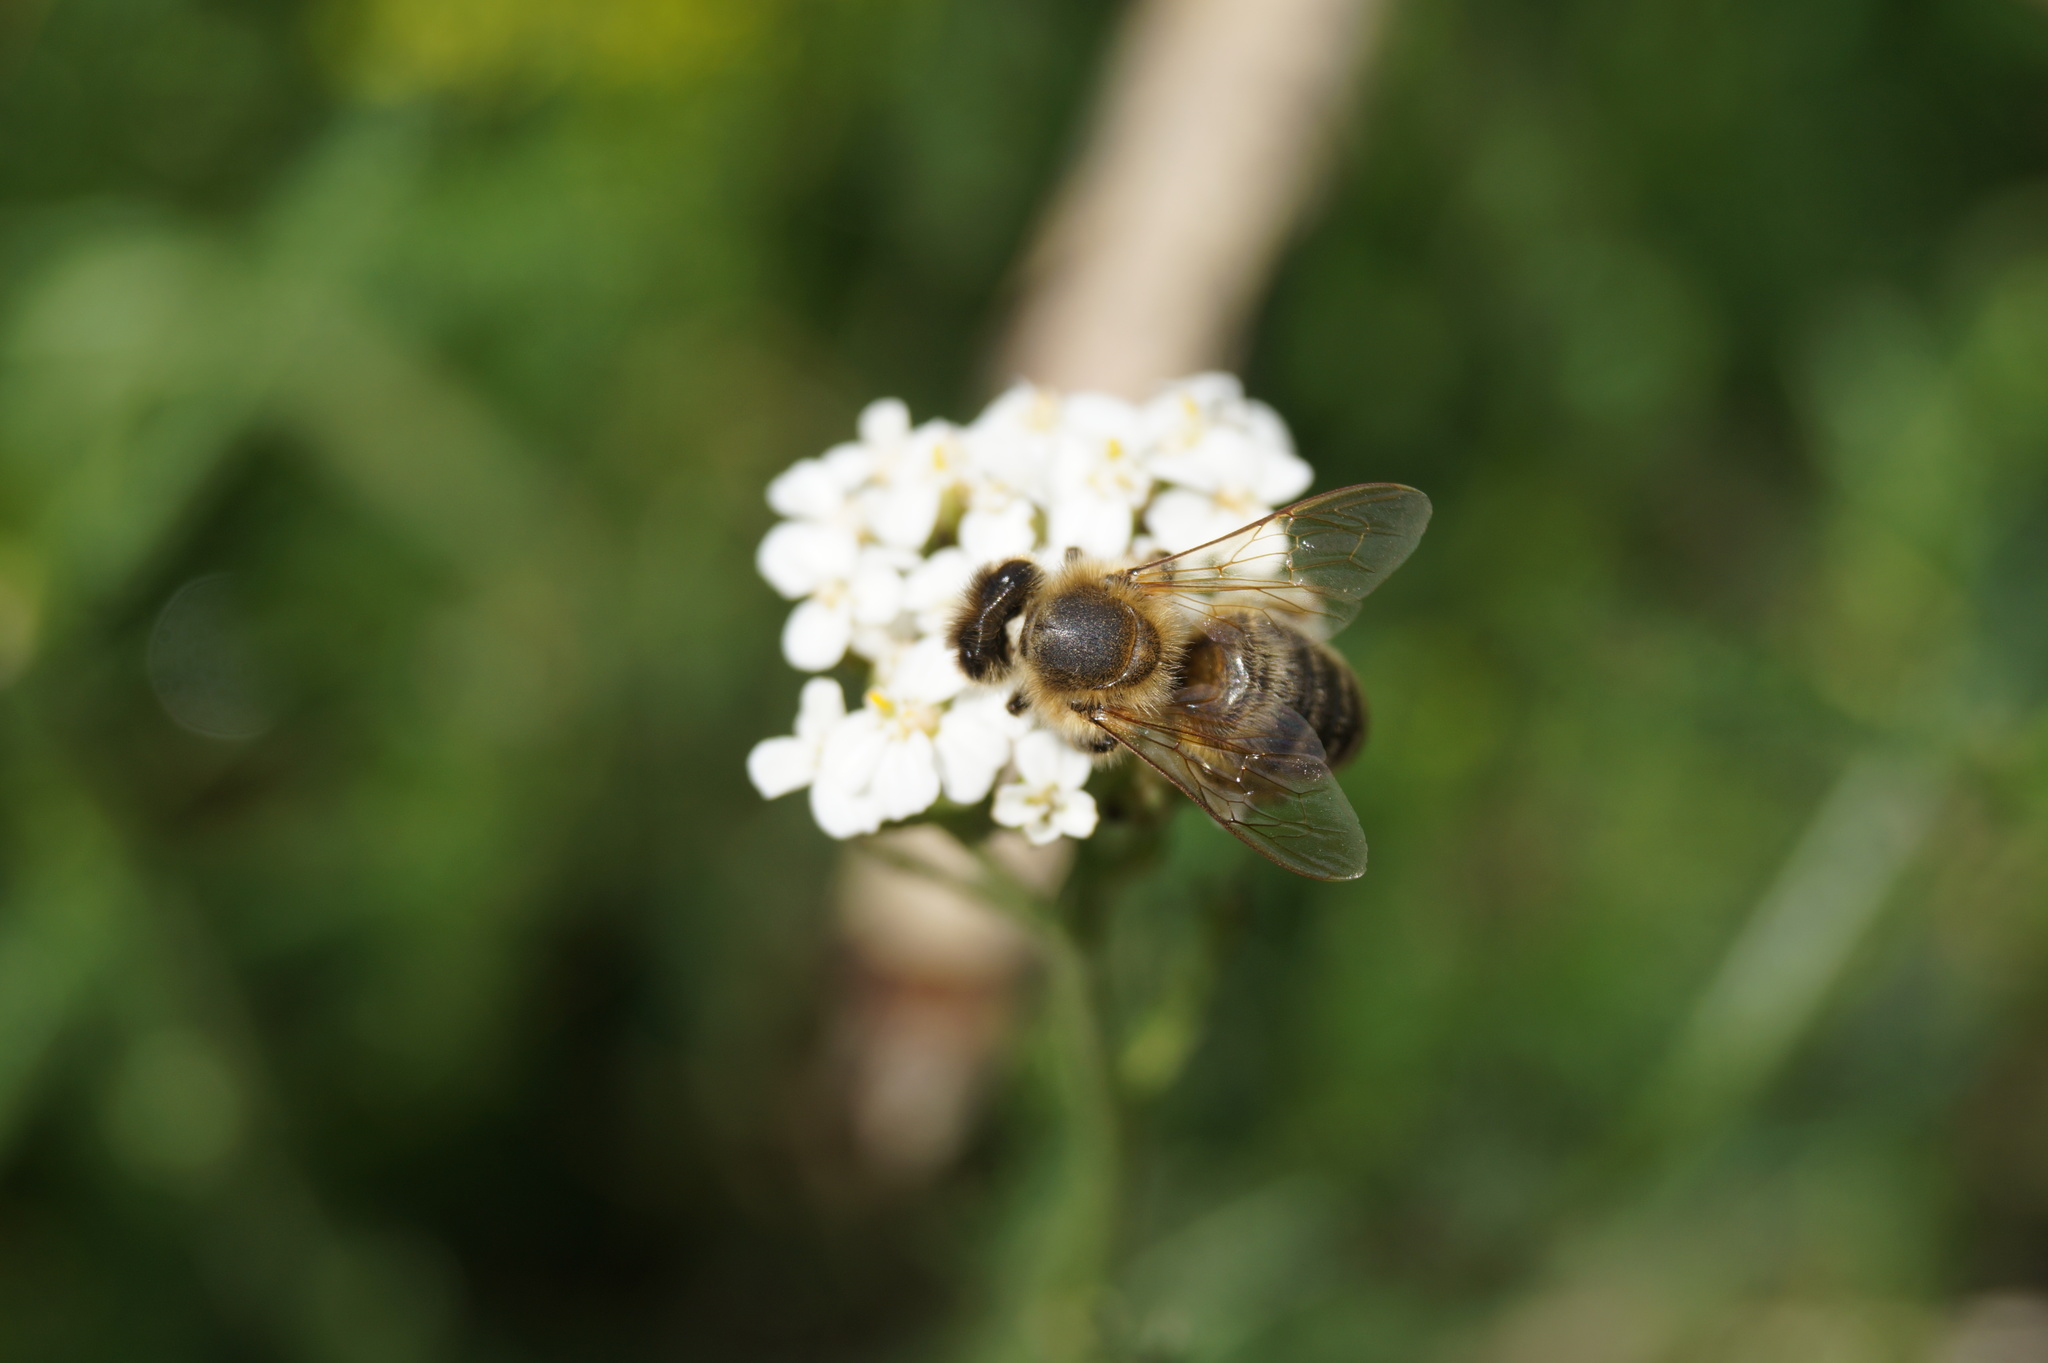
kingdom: Animalia
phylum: Arthropoda
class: Insecta
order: Hymenoptera
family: Apidae
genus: Apis
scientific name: Apis mellifera
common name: Honey bee
